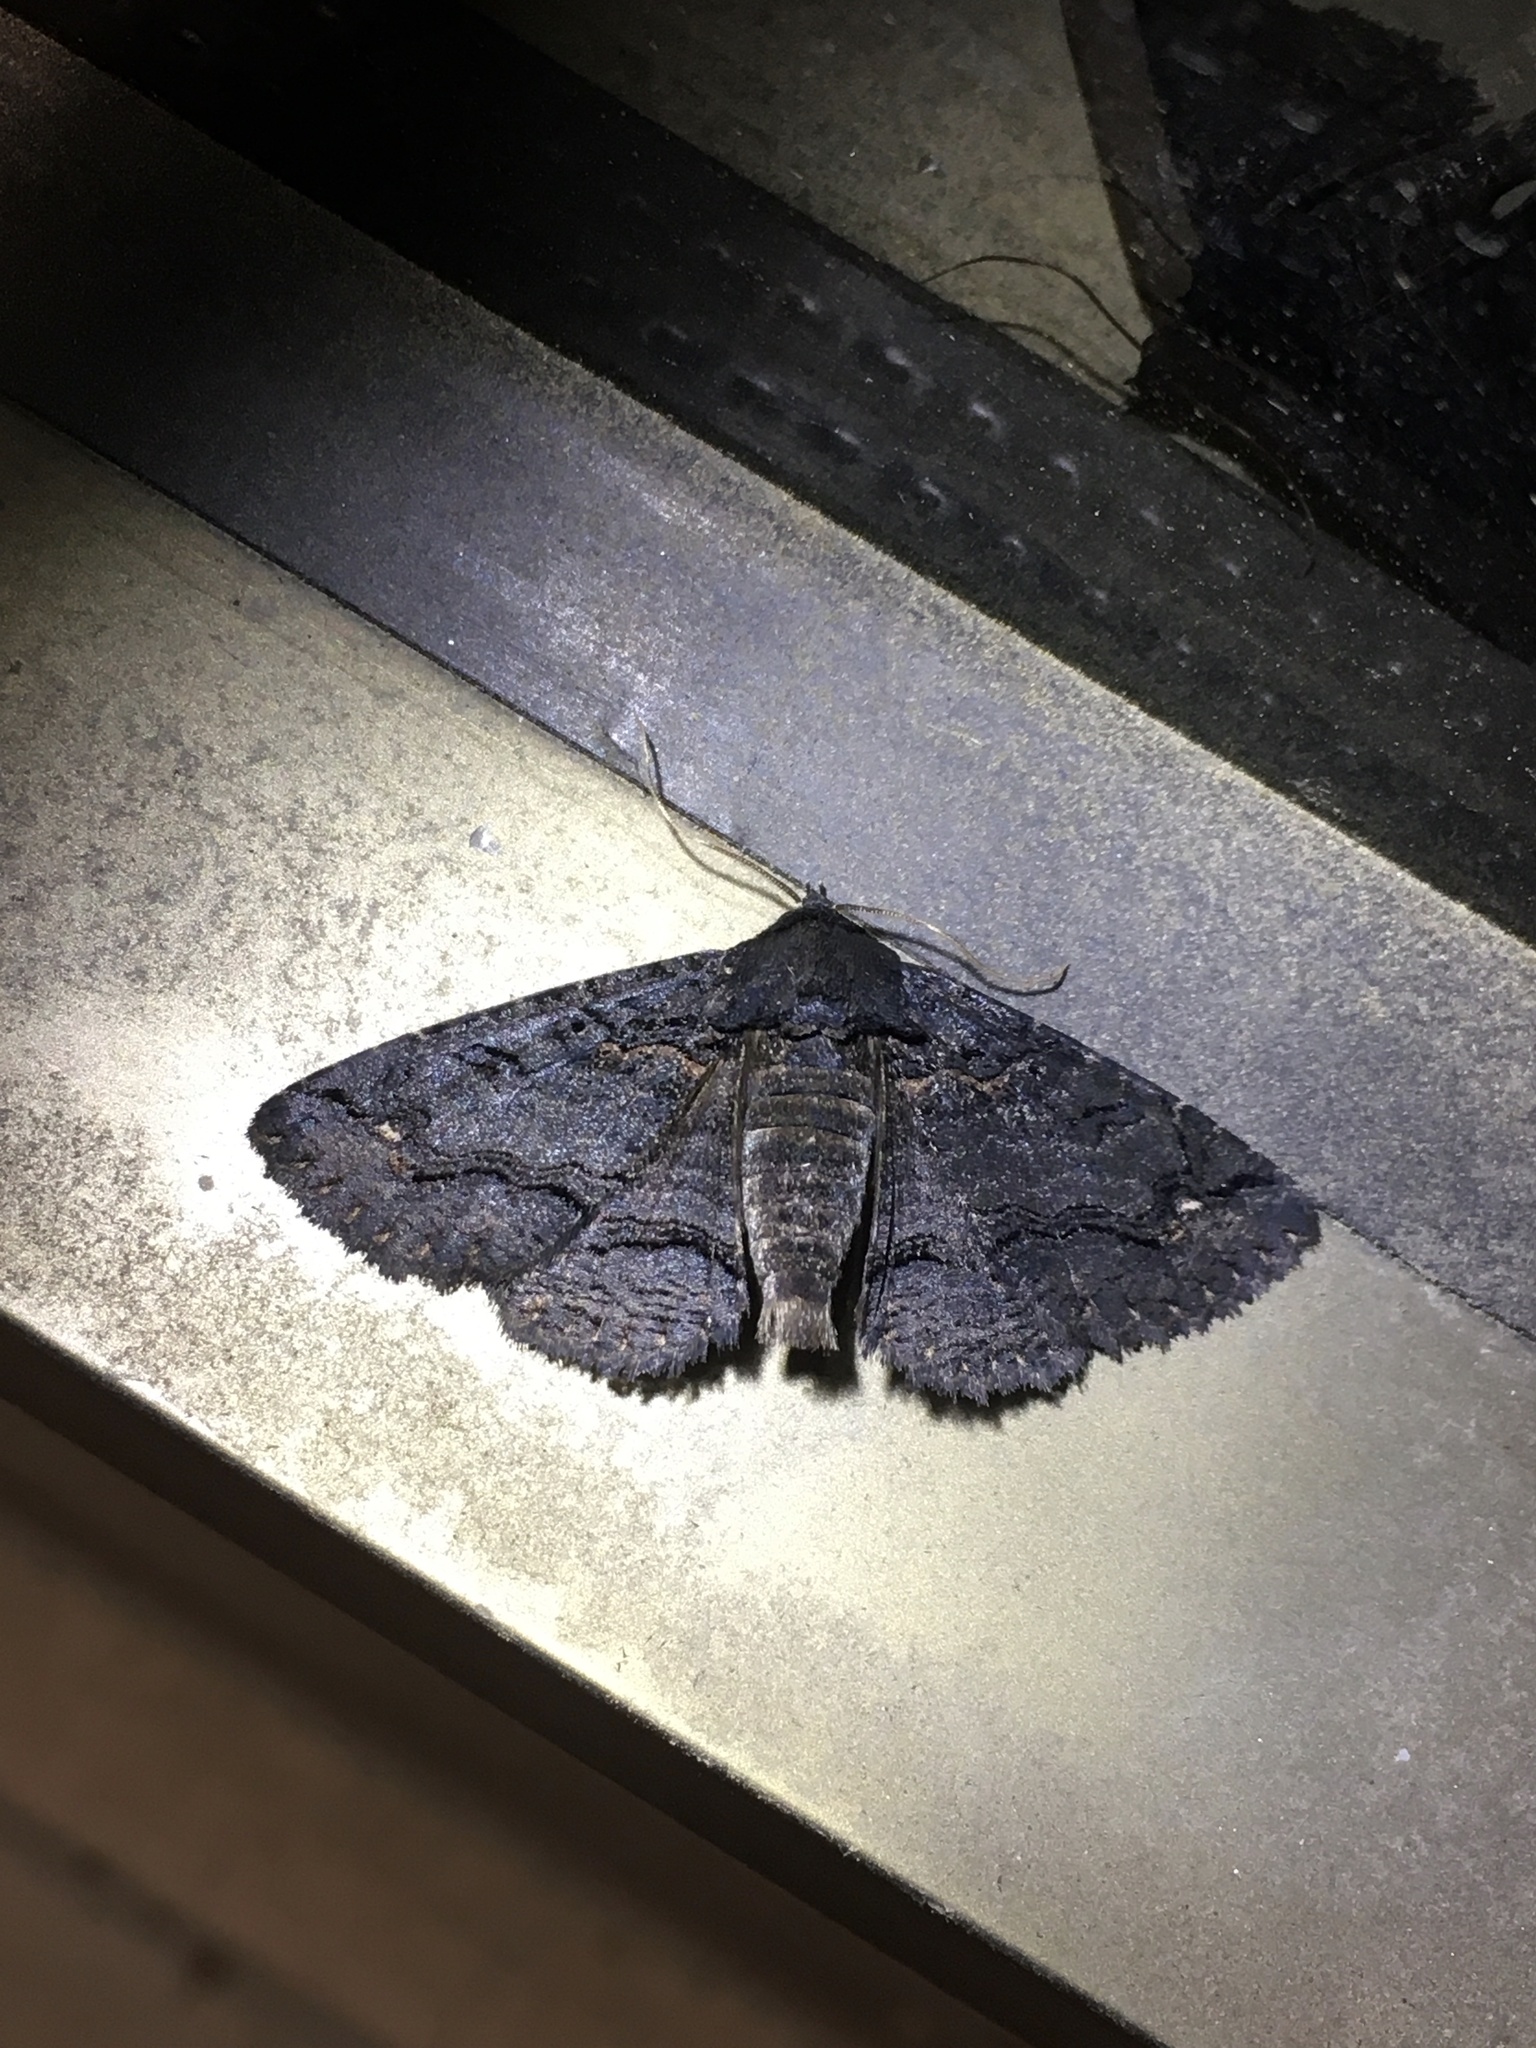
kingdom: Animalia
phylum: Arthropoda
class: Insecta
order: Lepidoptera
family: Erebidae
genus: Zale
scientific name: Zale undularis
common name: Black zale moth
